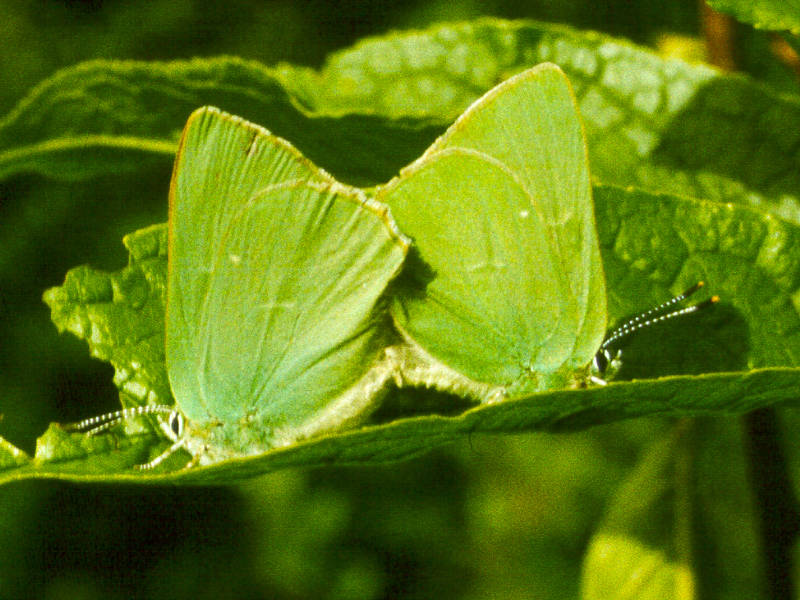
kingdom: Animalia
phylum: Arthropoda
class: Insecta
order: Lepidoptera
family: Lycaenidae
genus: Callophrys
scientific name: Callophrys rubi
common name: Green hairstreak
